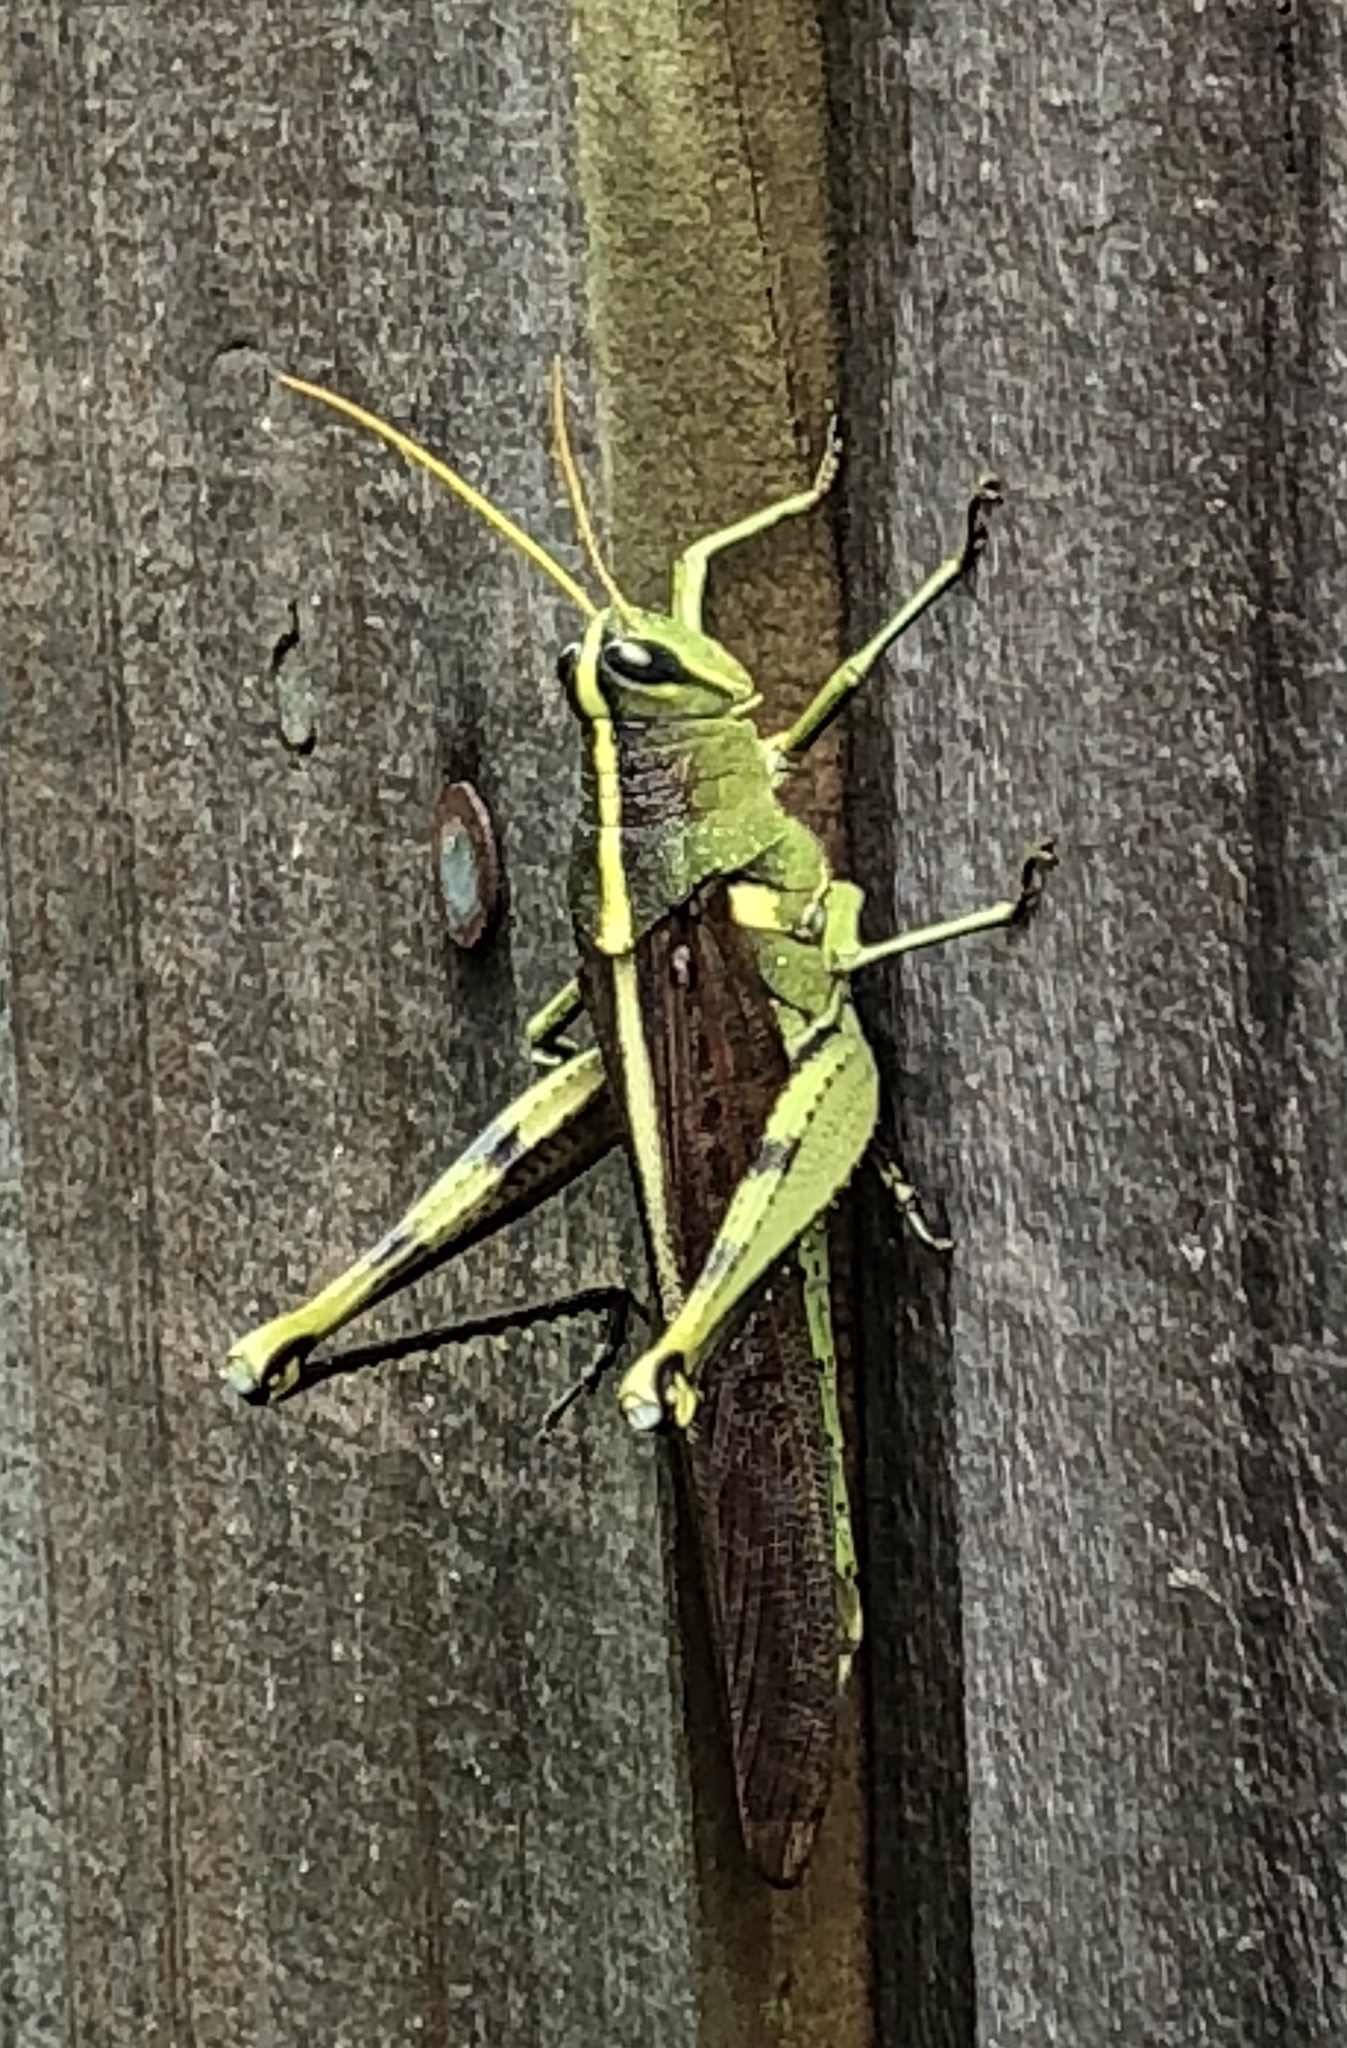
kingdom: Animalia
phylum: Arthropoda
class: Insecta
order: Orthoptera
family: Acrididae
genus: Schistocerca
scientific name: Schistocerca obscura
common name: Obscure bird grasshopper
